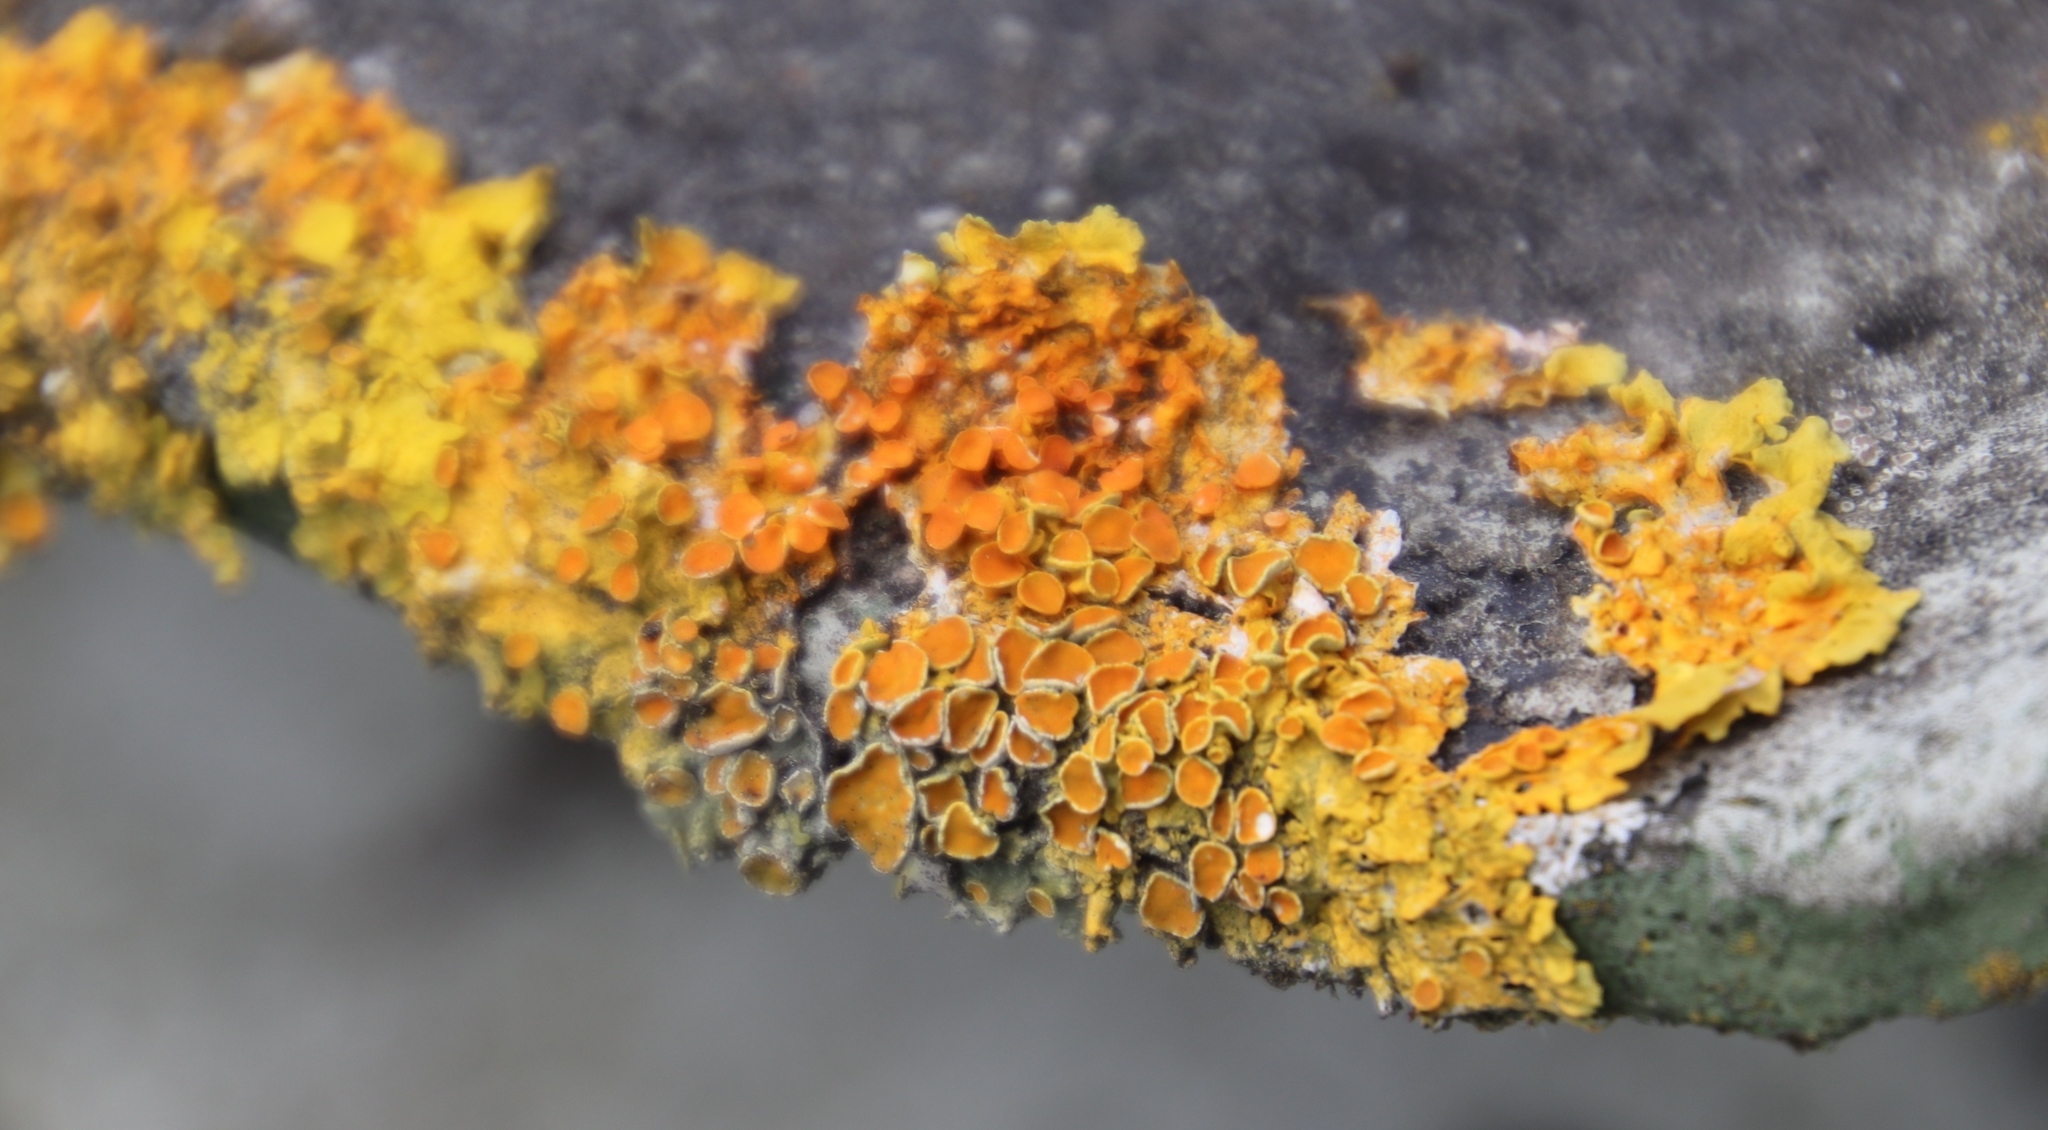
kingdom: Fungi
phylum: Ascomycota
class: Lecanoromycetes
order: Teloschistales
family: Teloschistaceae
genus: Xanthoria
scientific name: Xanthoria parietina
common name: Common orange lichen
